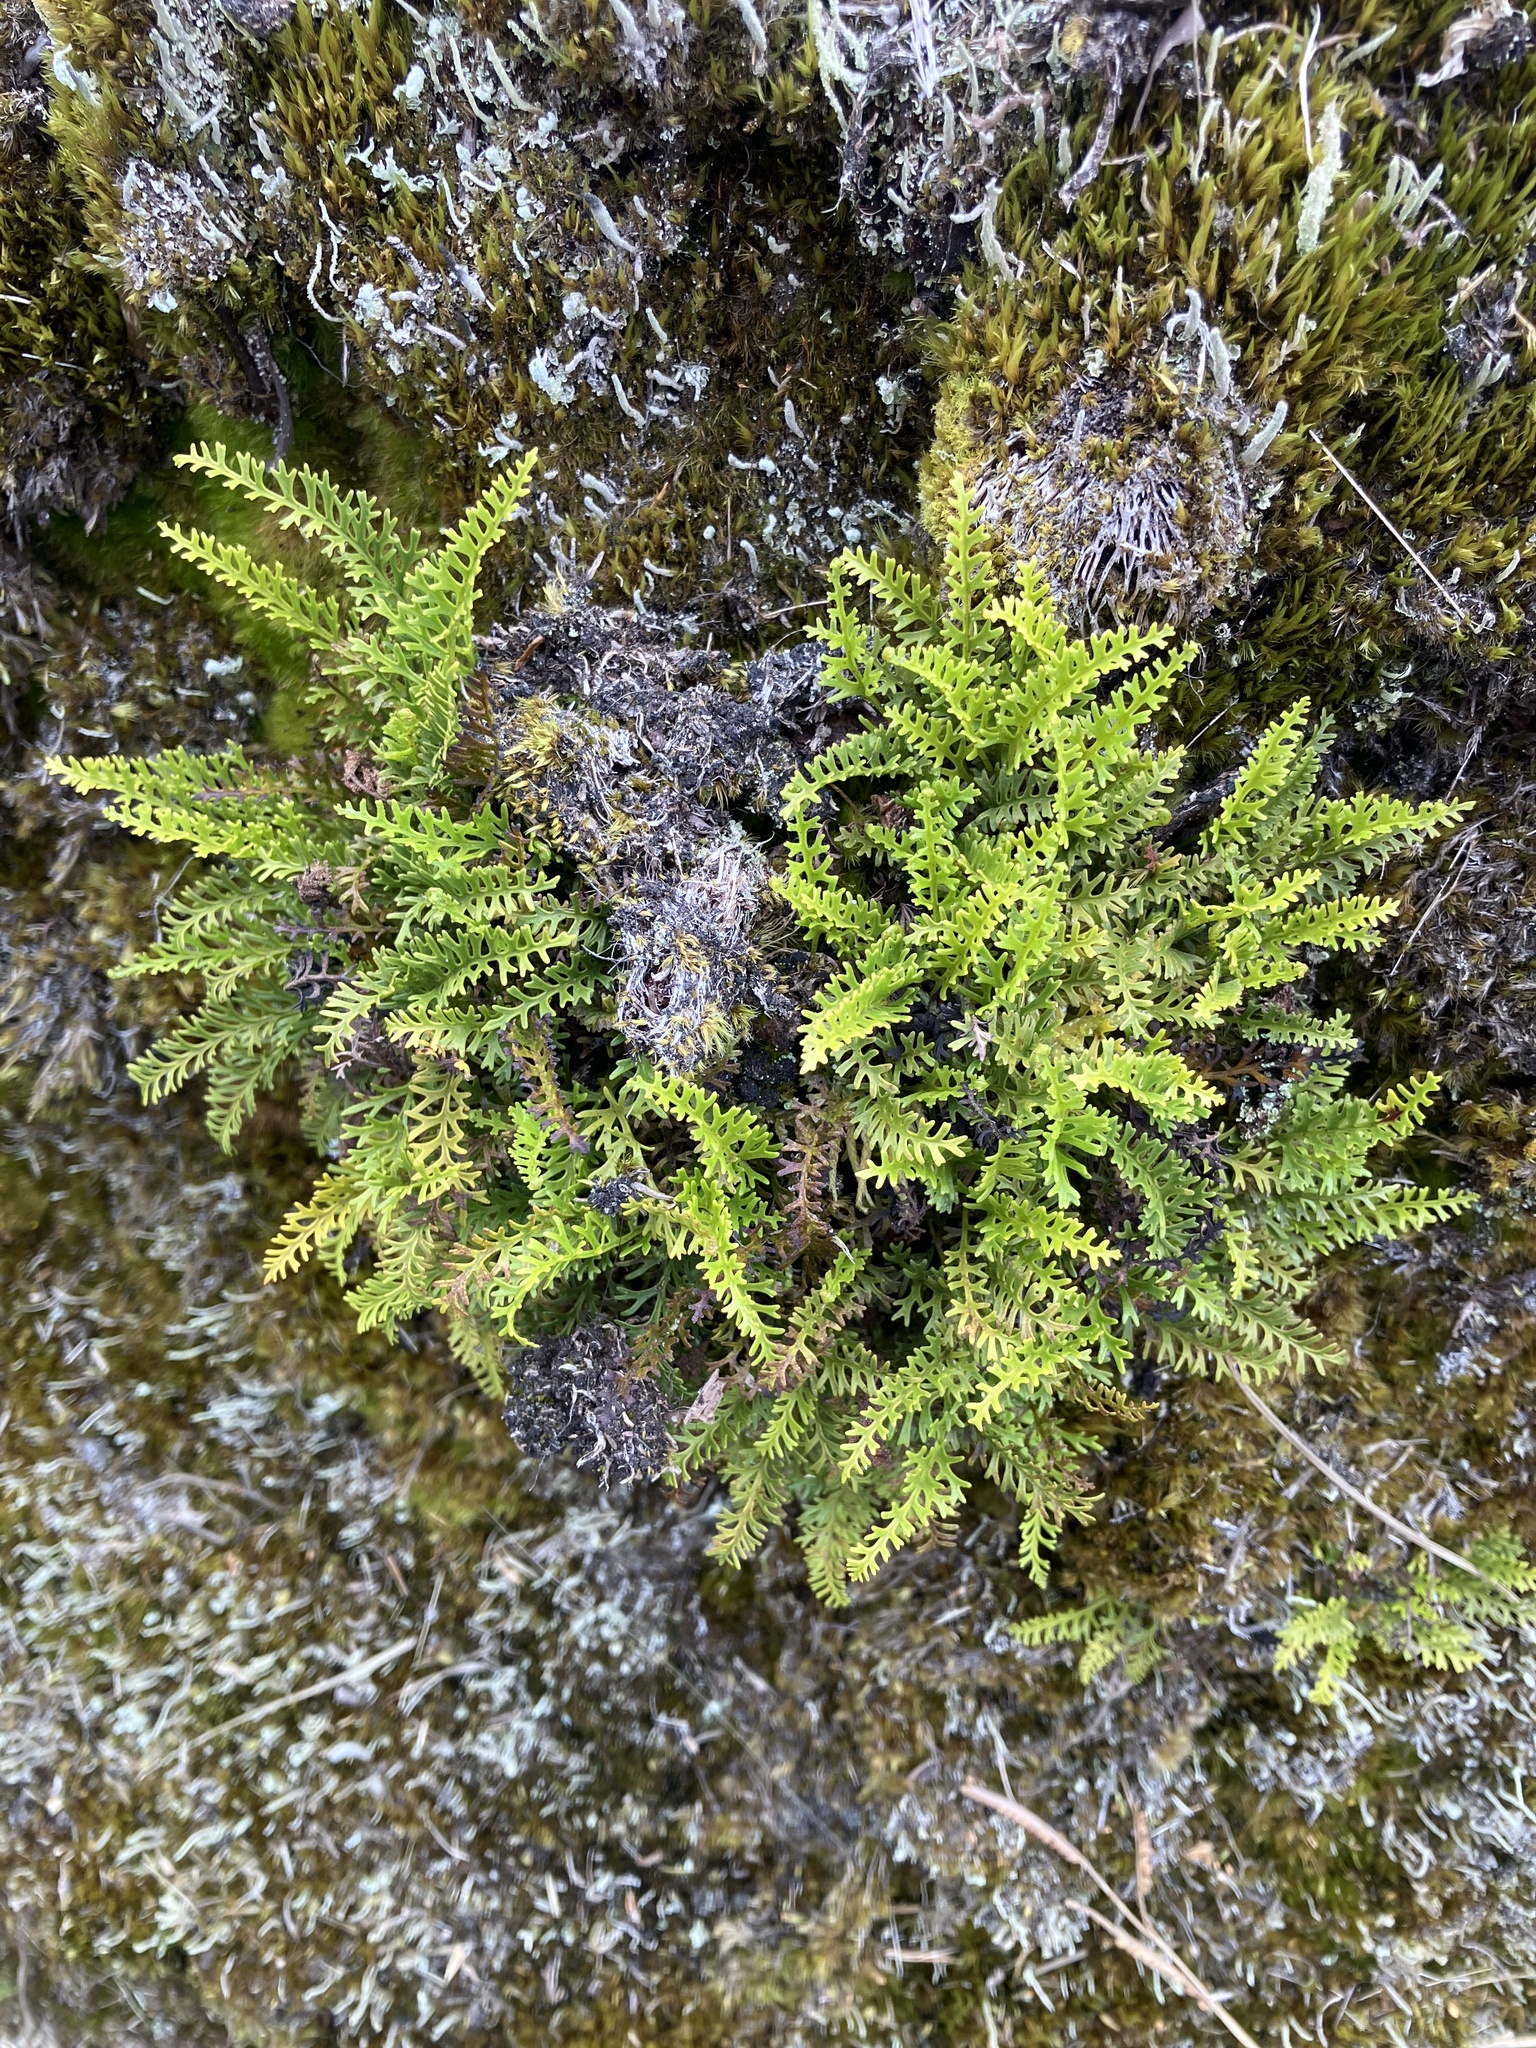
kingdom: Plantae
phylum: Tracheophyta
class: Polypodiopsida
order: Polypodiales
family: Dryopteridaceae
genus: Elaphoglossum
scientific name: Elaphoglossum furcatum
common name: Mossy fern
